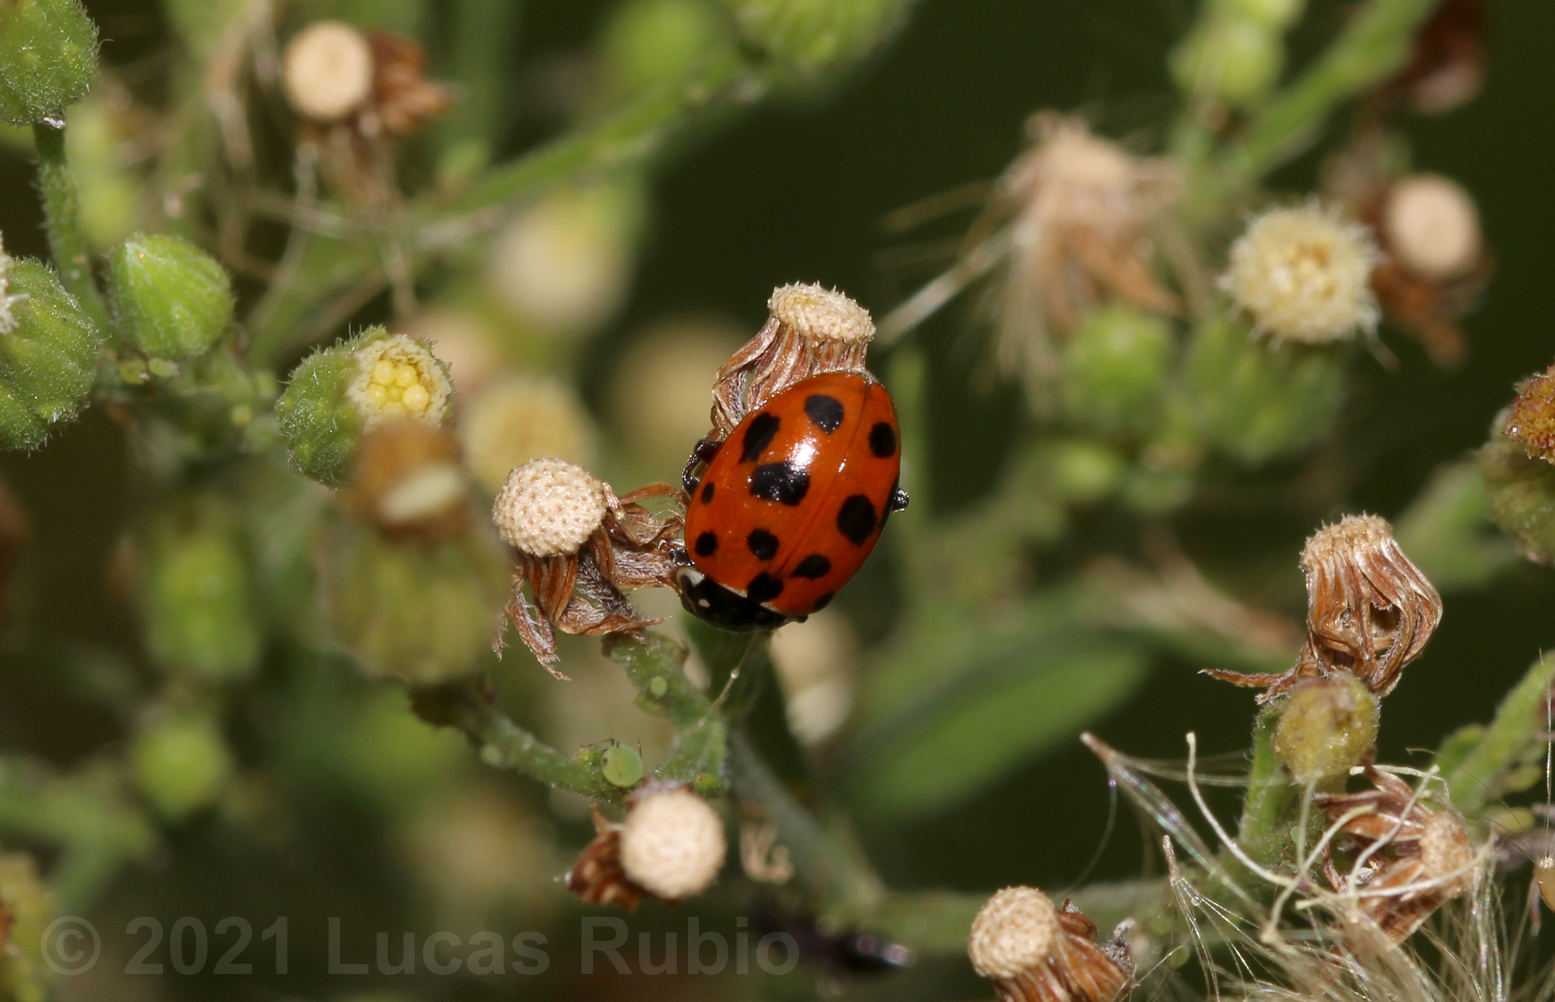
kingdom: Animalia
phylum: Arthropoda
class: Insecta
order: Coleoptera
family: Coccinellidae
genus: Hippodamia
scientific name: Hippodamia variegata
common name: Ladybird beetle
